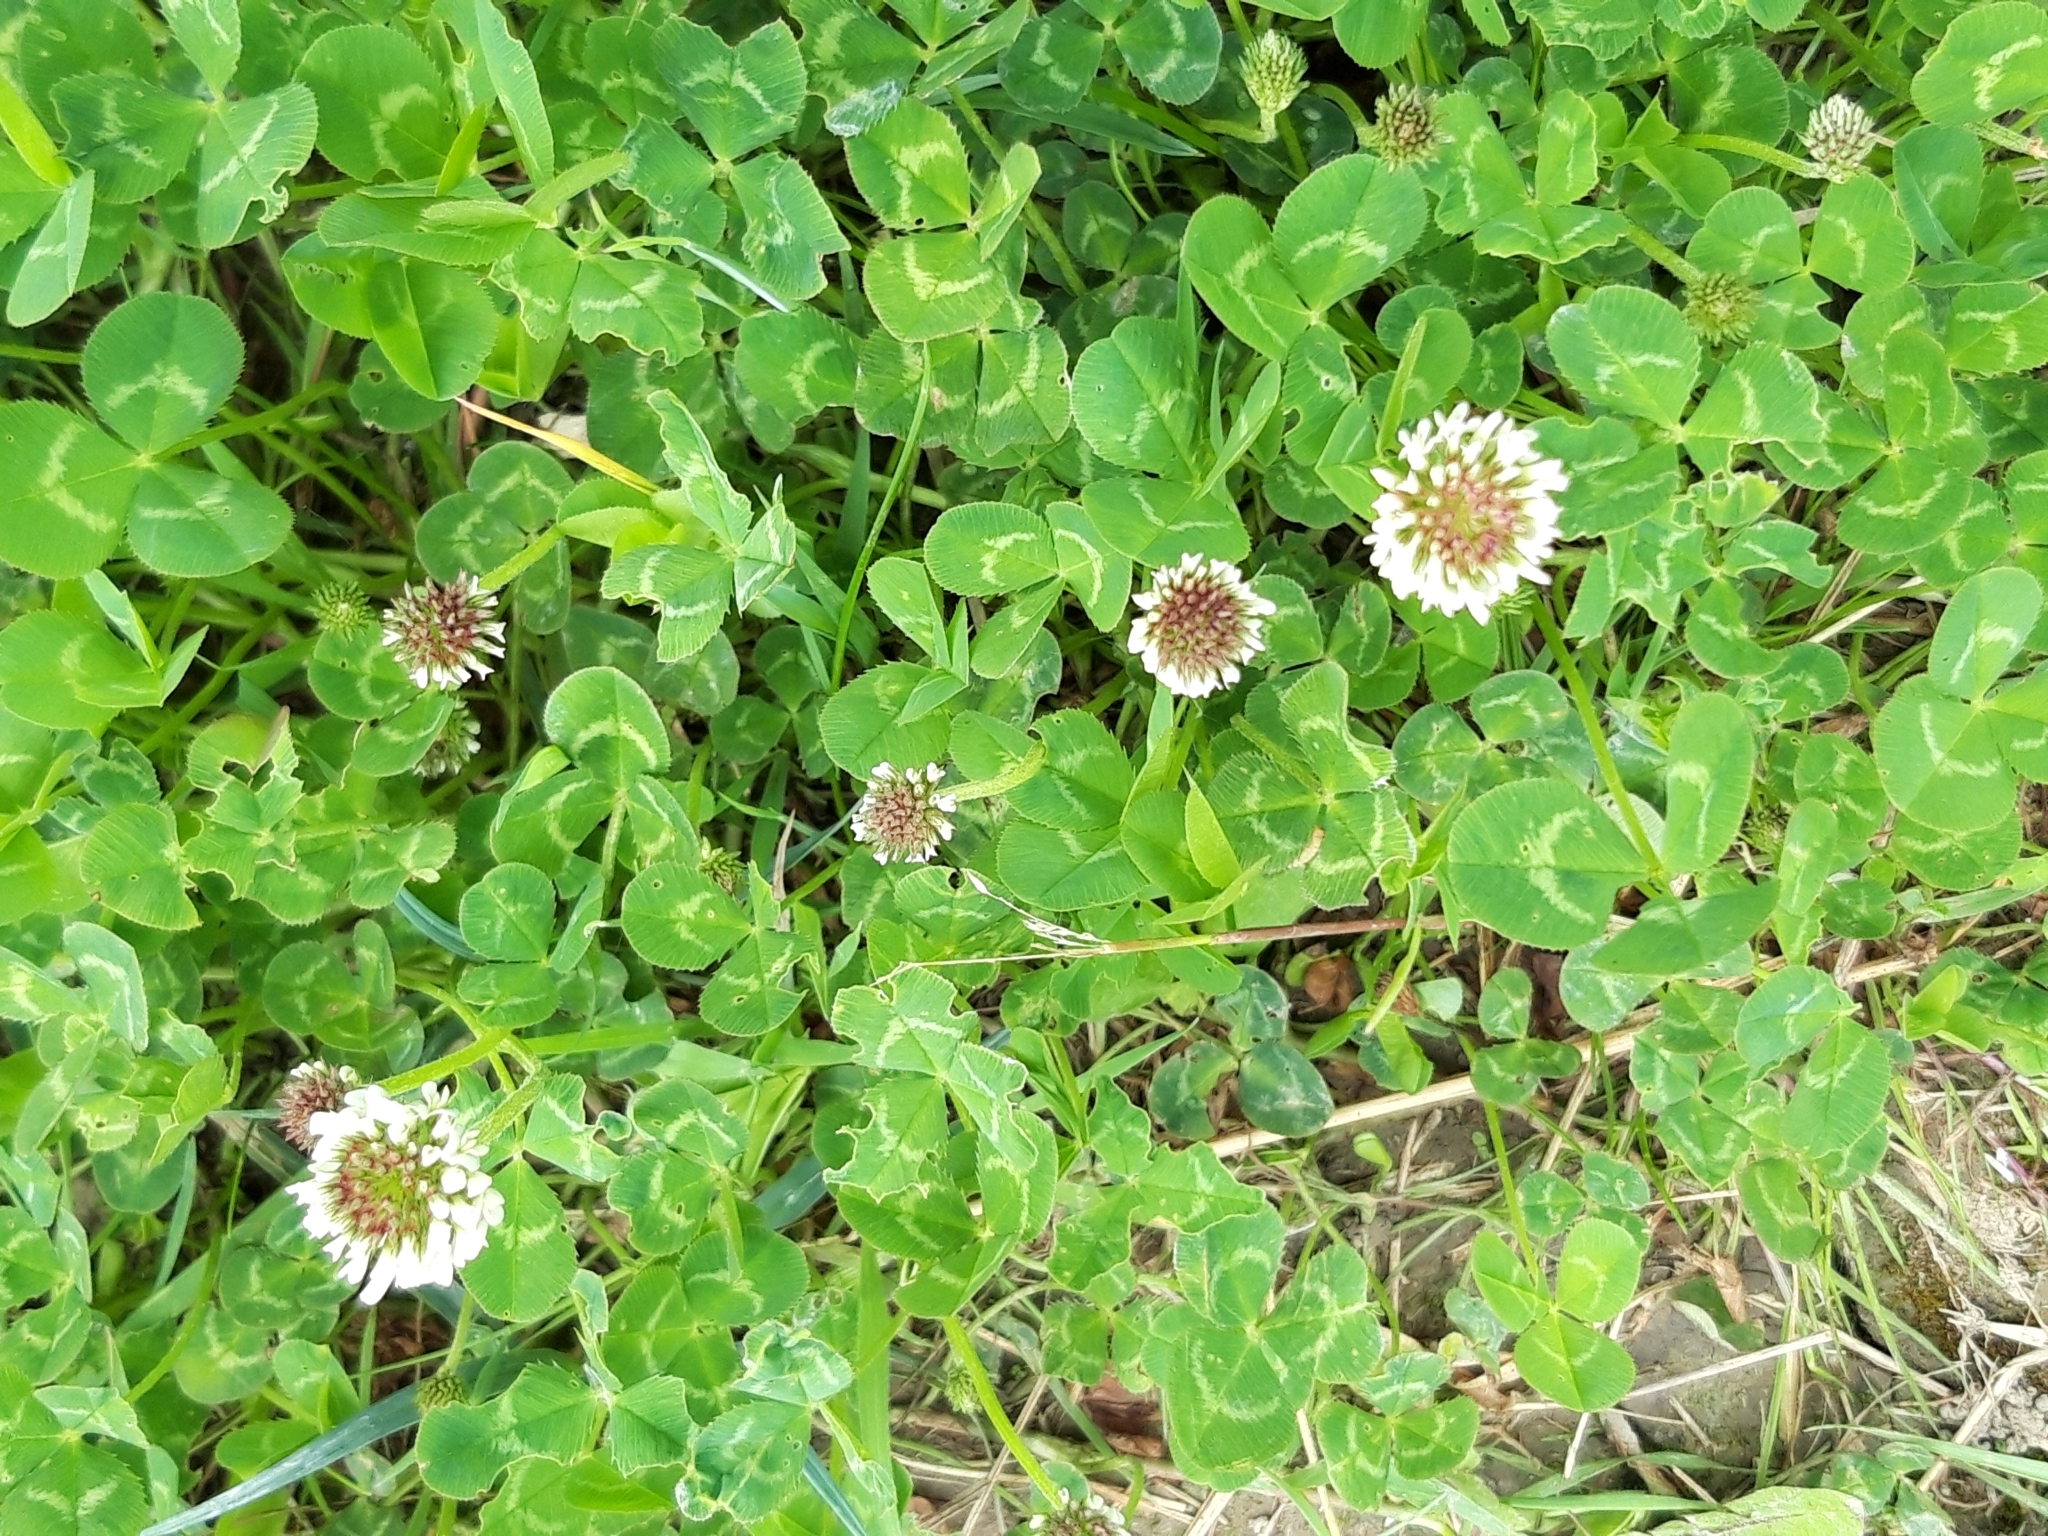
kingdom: Plantae
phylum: Tracheophyta
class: Magnoliopsida
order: Fabales
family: Fabaceae
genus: Trifolium
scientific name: Trifolium repens
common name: White clover
